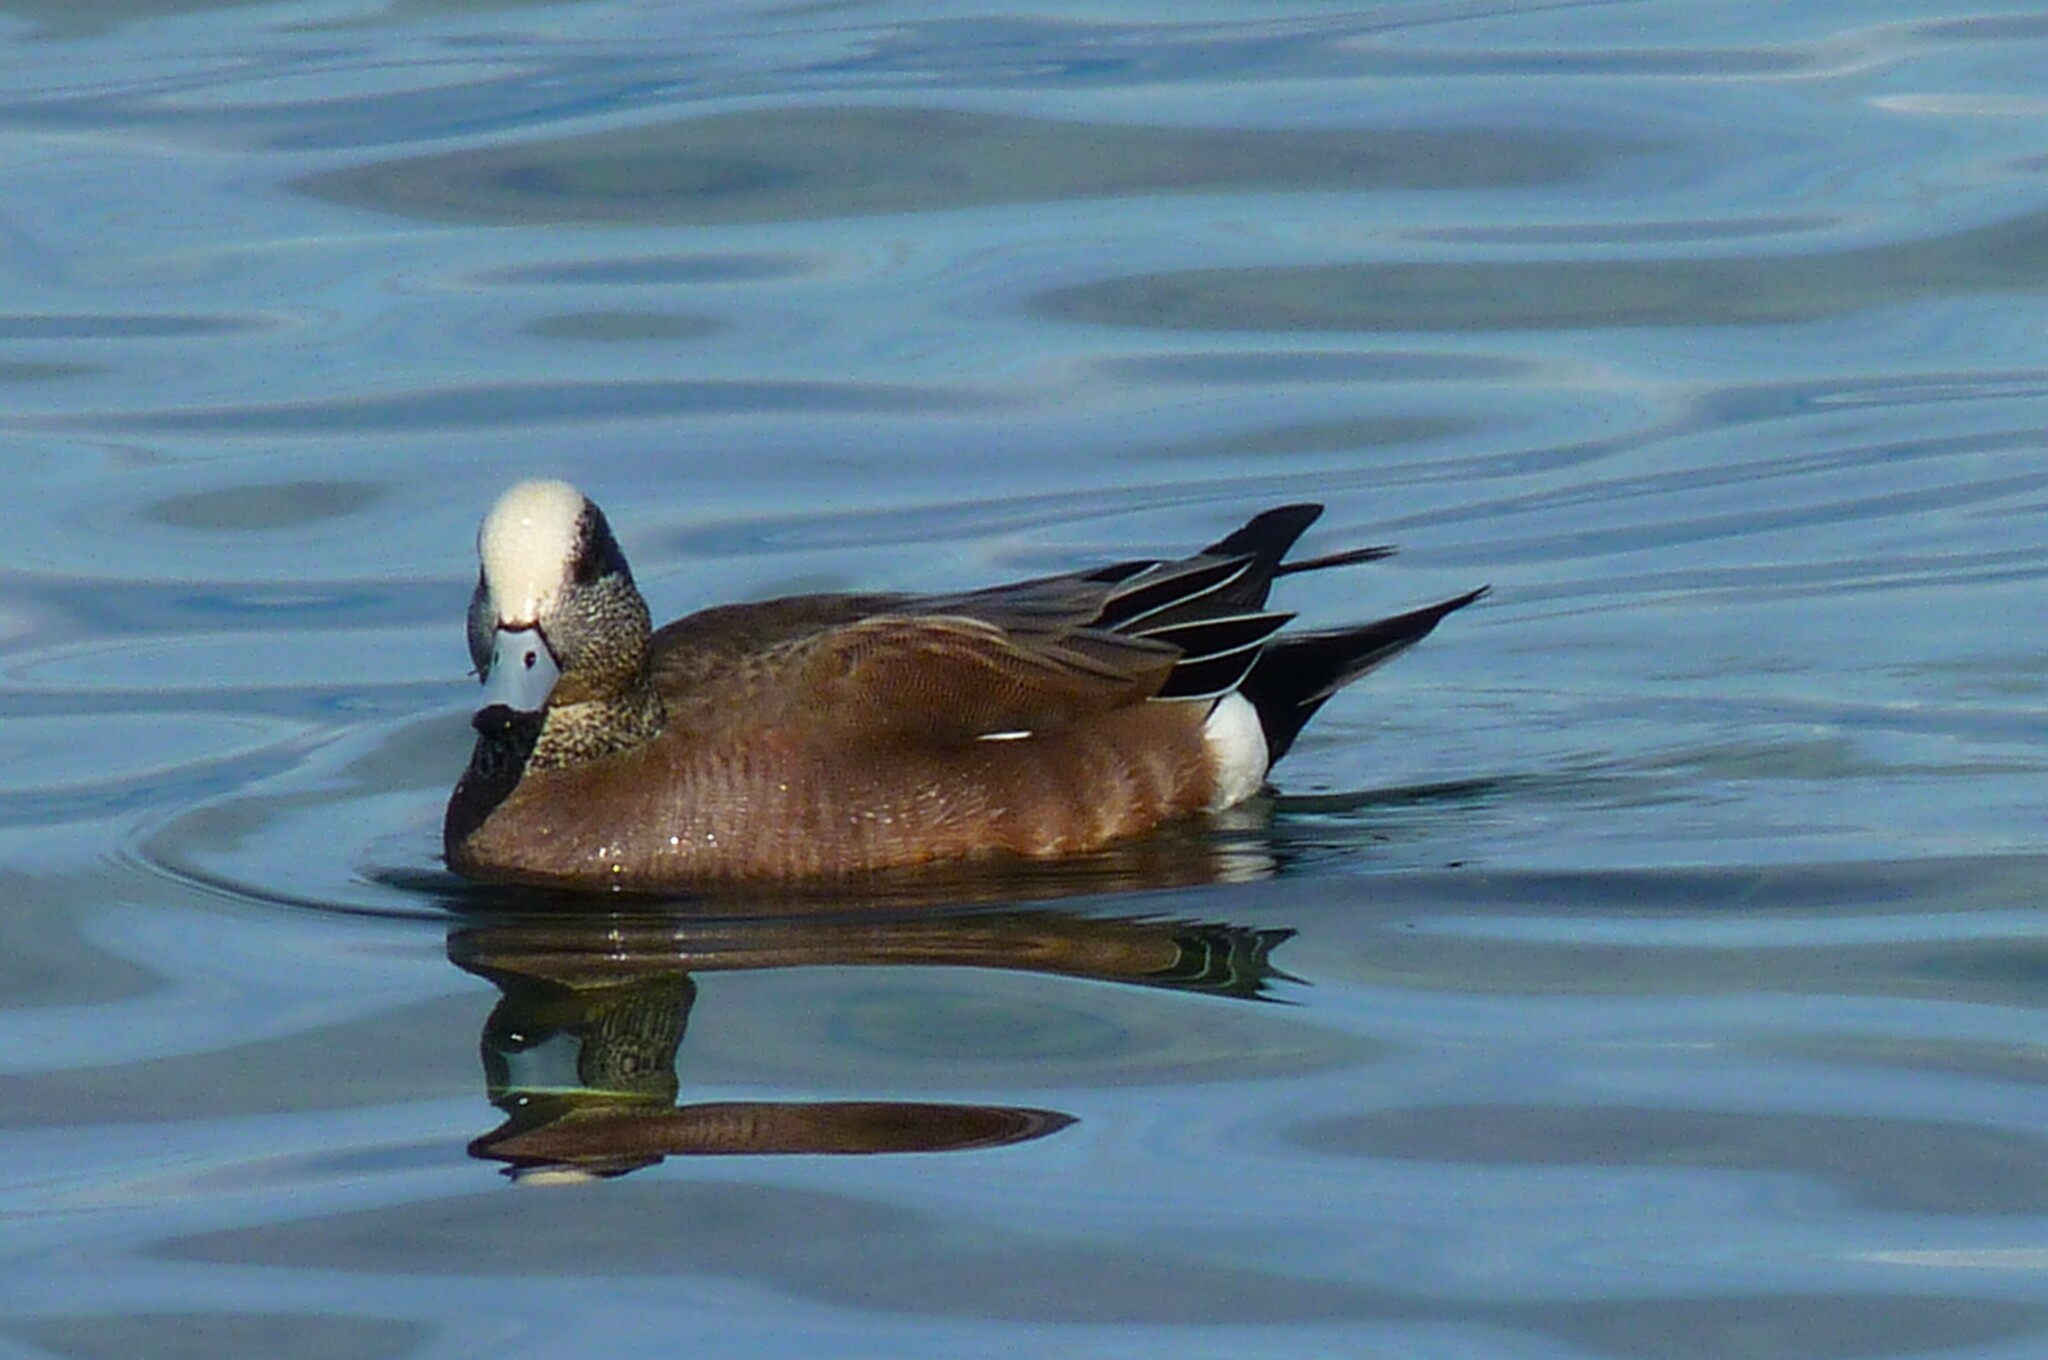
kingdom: Animalia
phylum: Chordata
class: Aves
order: Anseriformes
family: Anatidae
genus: Mareca
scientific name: Mareca americana
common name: American wigeon
